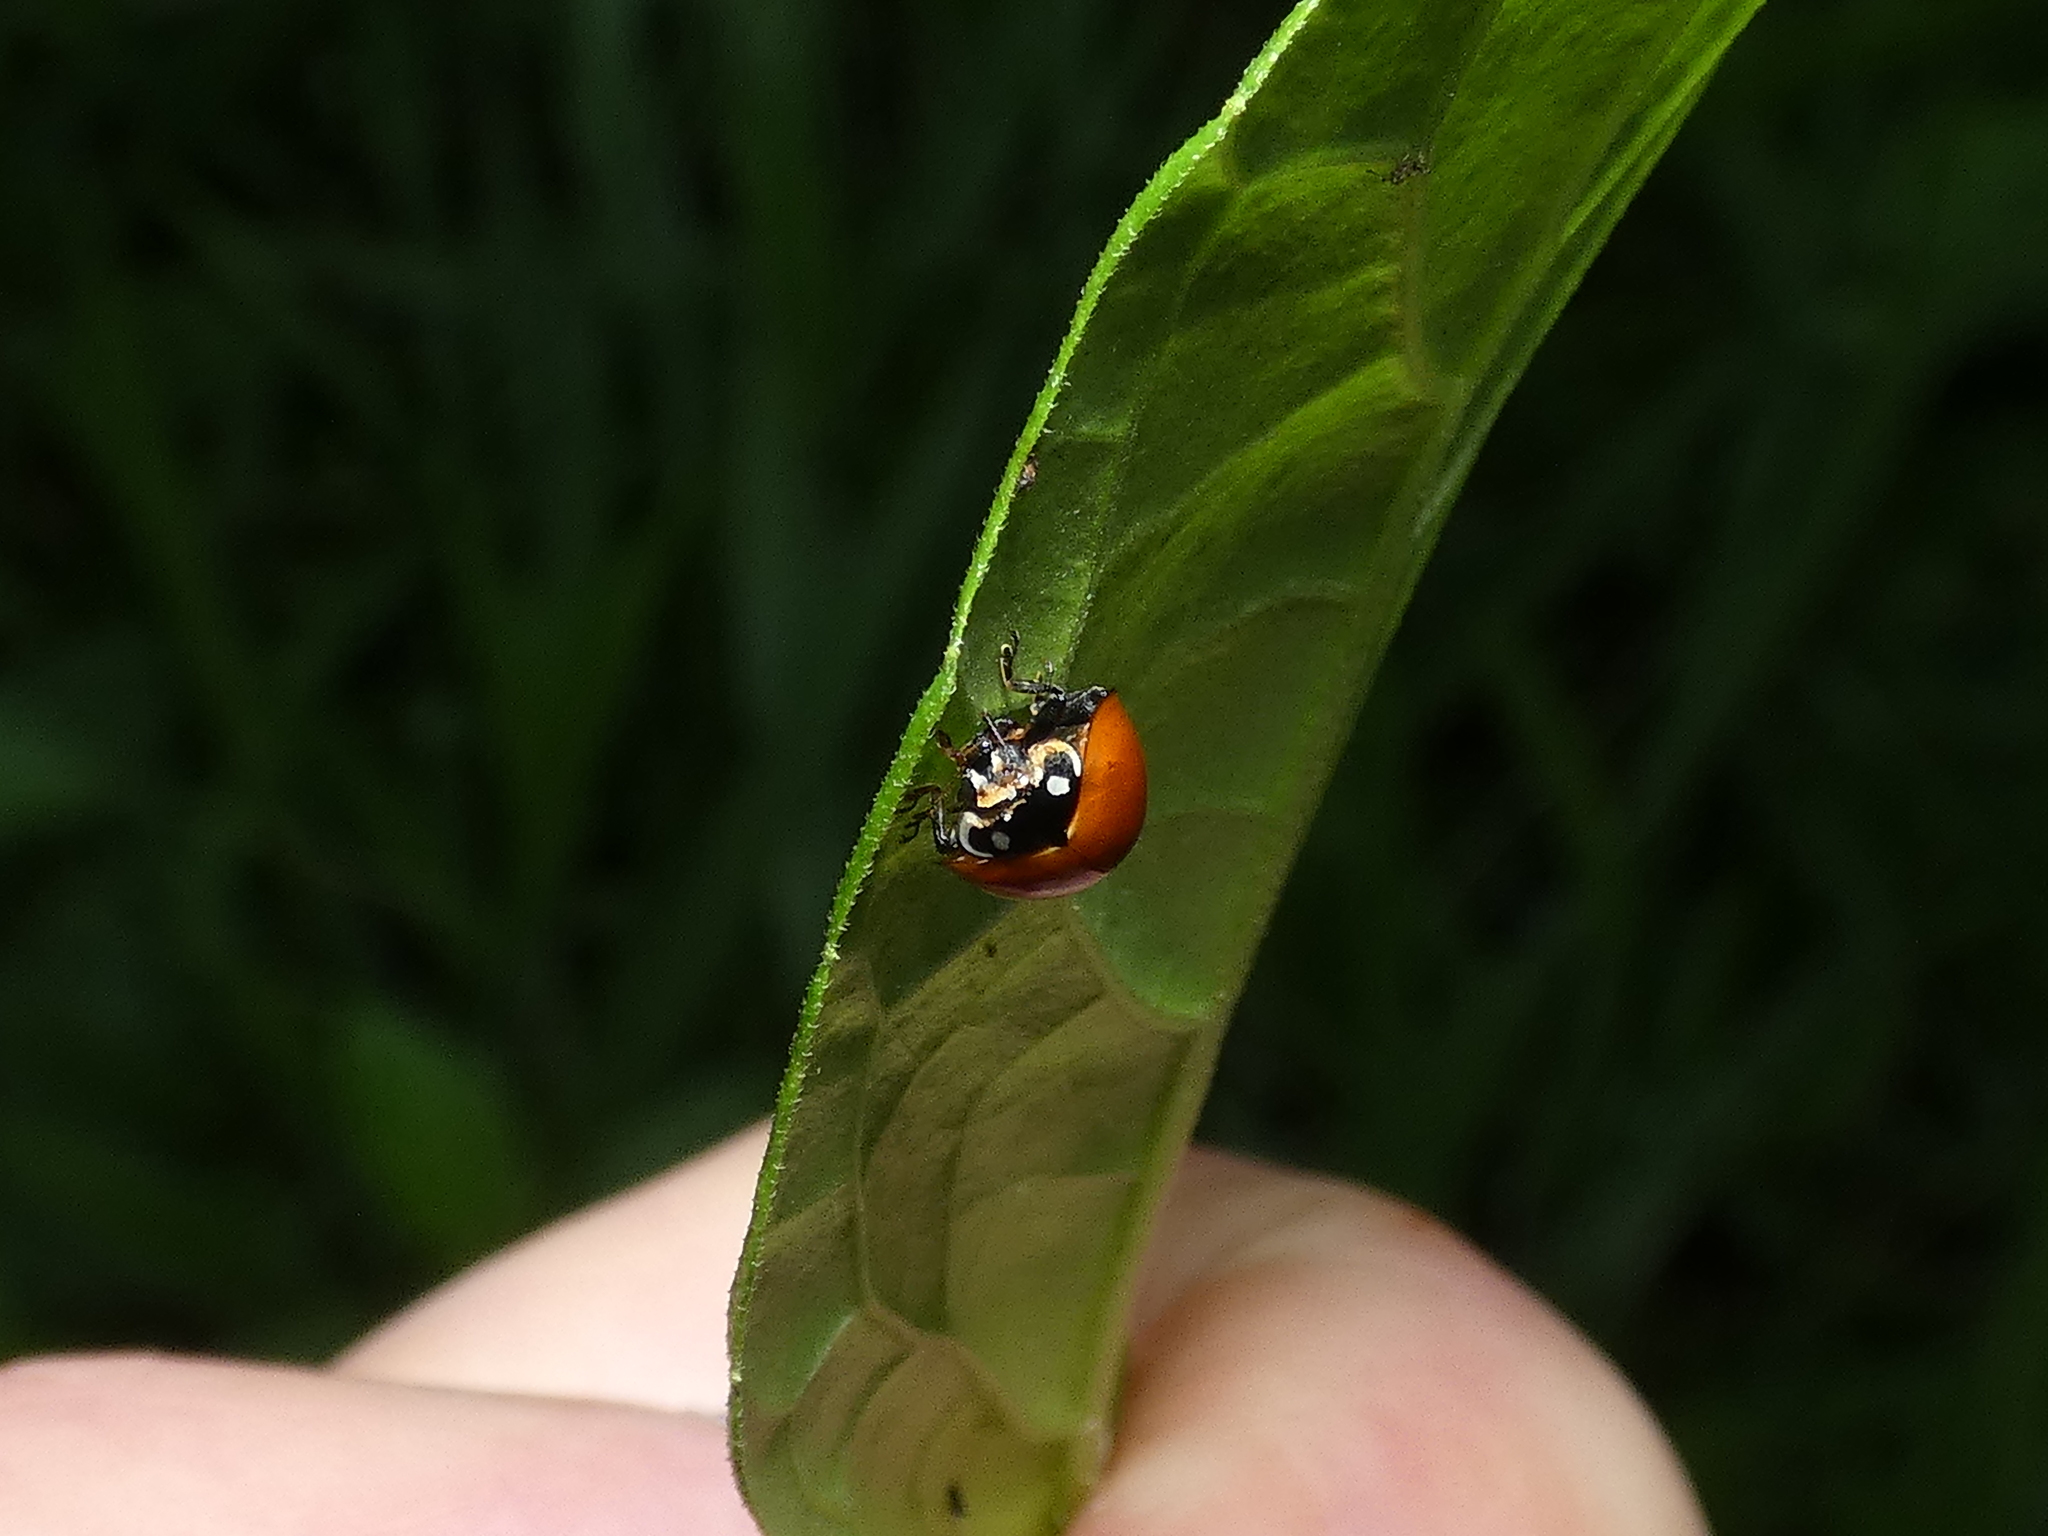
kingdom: Animalia
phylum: Arthropoda
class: Insecta
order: Coleoptera
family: Coccinellidae
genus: Cycloneda
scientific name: Cycloneda sanguinea
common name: Ladybird beetle
